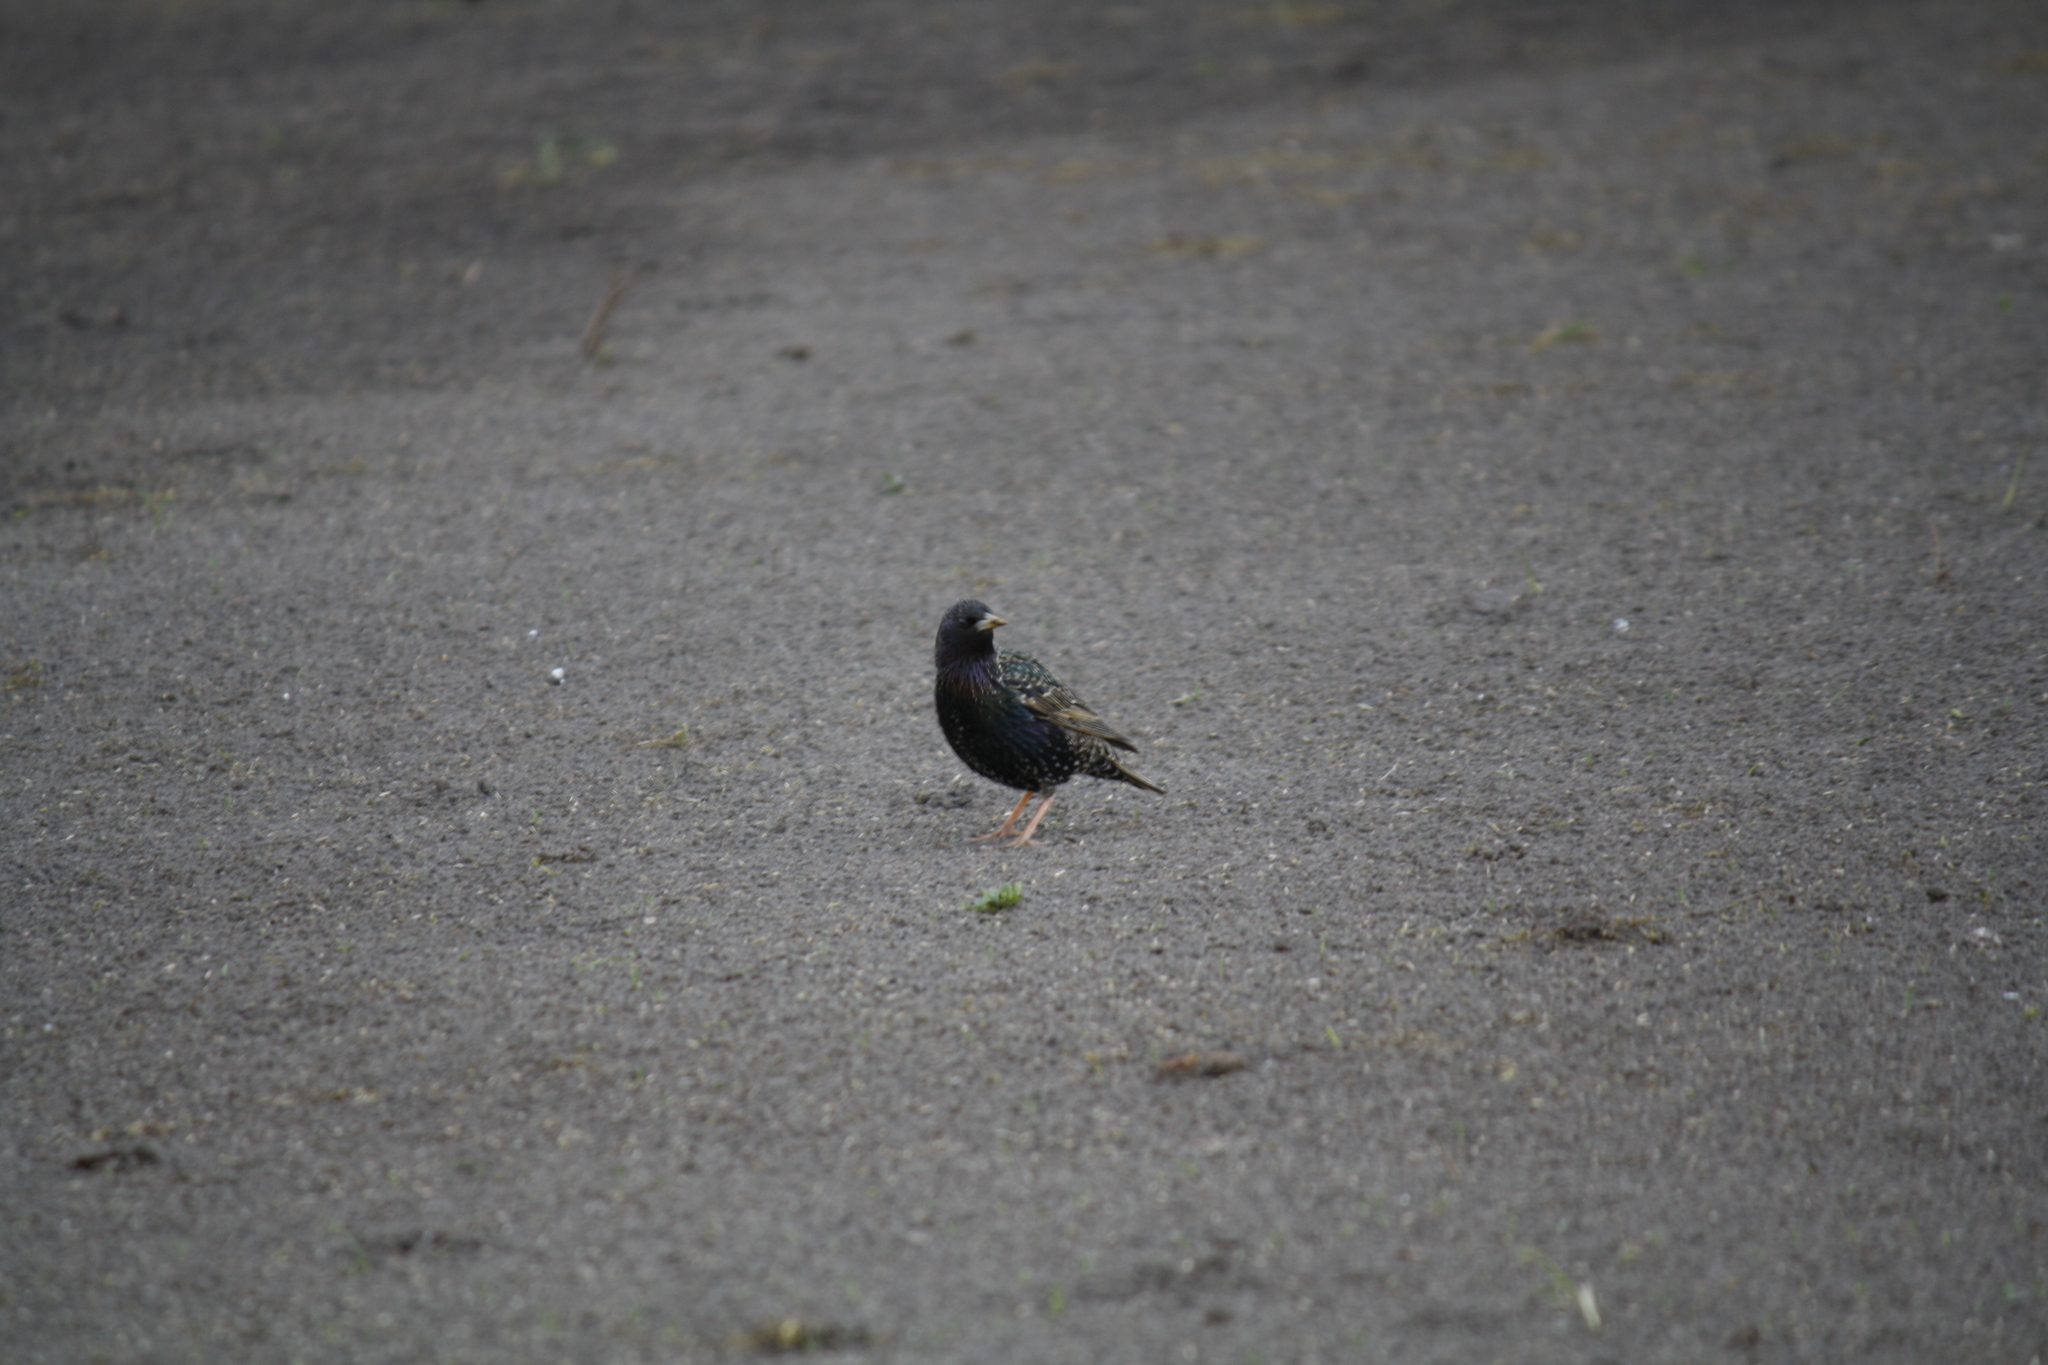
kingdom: Animalia
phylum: Chordata
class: Aves
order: Passeriformes
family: Sturnidae
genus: Sturnus
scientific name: Sturnus vulgaris
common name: Common starling
